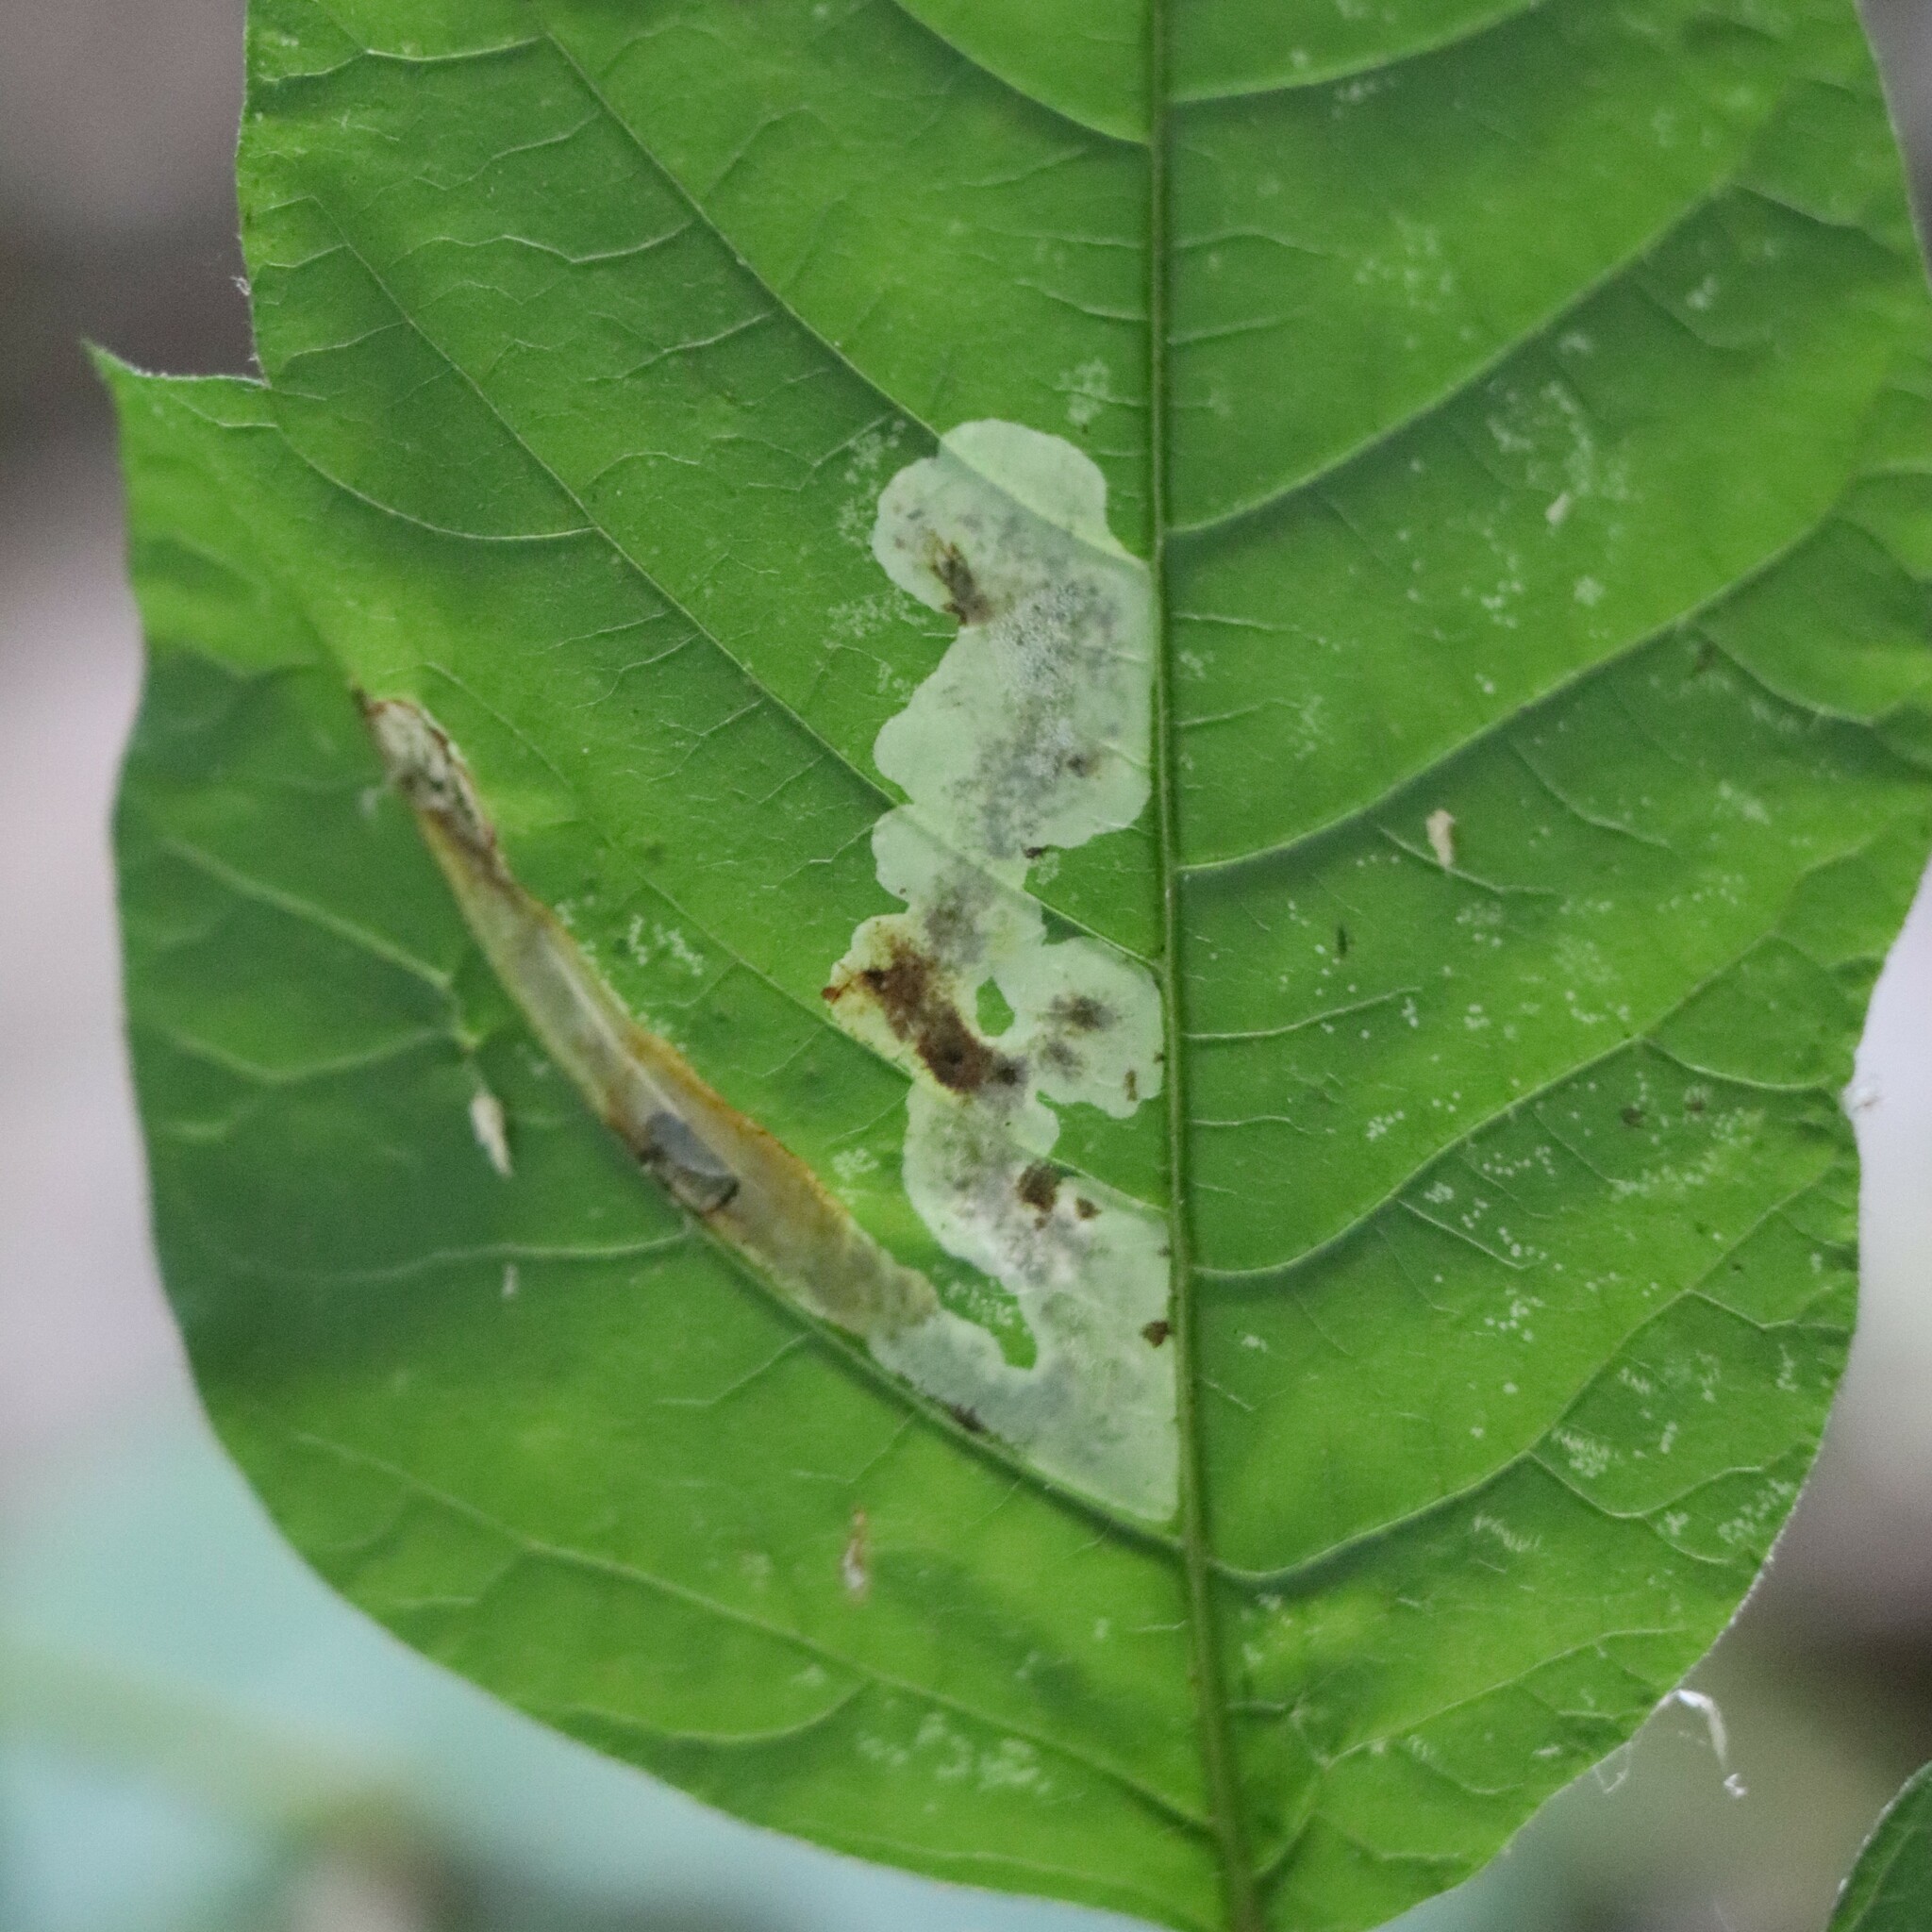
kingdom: Animalia
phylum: Arthropoda
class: Insecta
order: Lepidoptera
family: Gracillariidae
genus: Cameraria
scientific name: Cameraria guttifinitella
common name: Poison ivy leaf-miner moth
